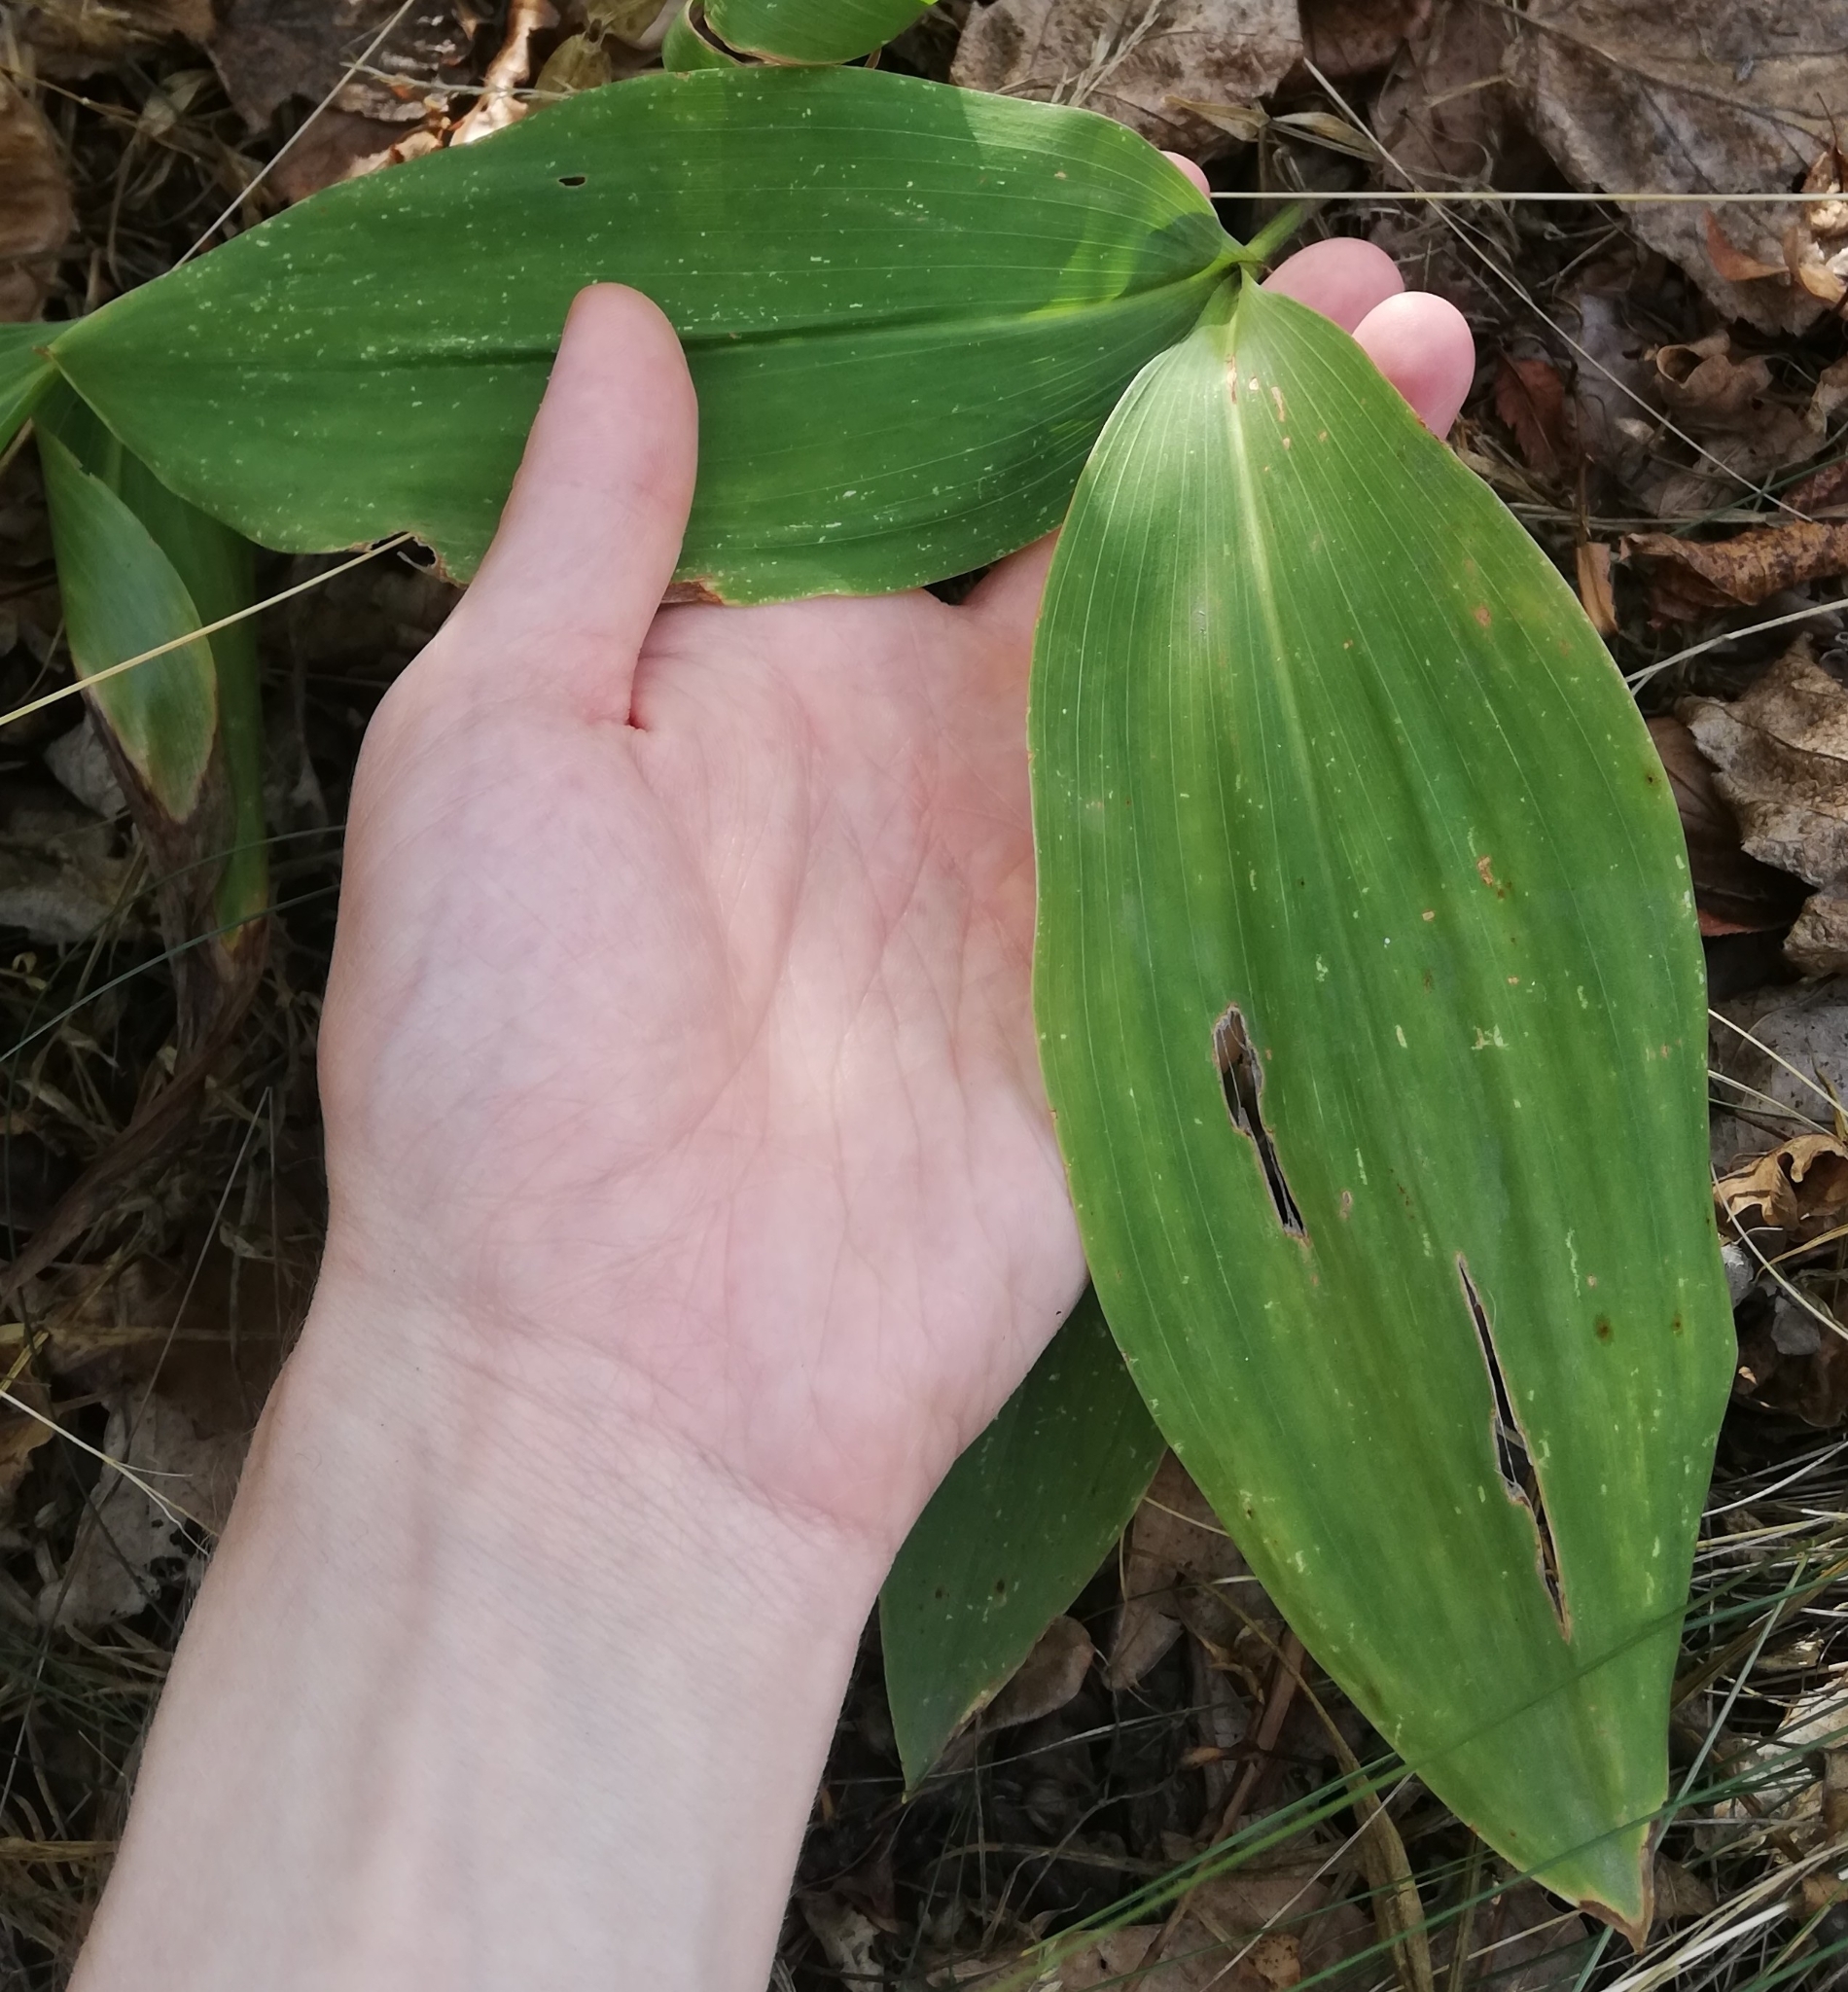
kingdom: Plantae
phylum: Tracheophyta
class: Liliopsida
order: Asparagales
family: Asparagaceae
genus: Convallaria
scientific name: Convallaria majalis
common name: Lily-of-the-valley
